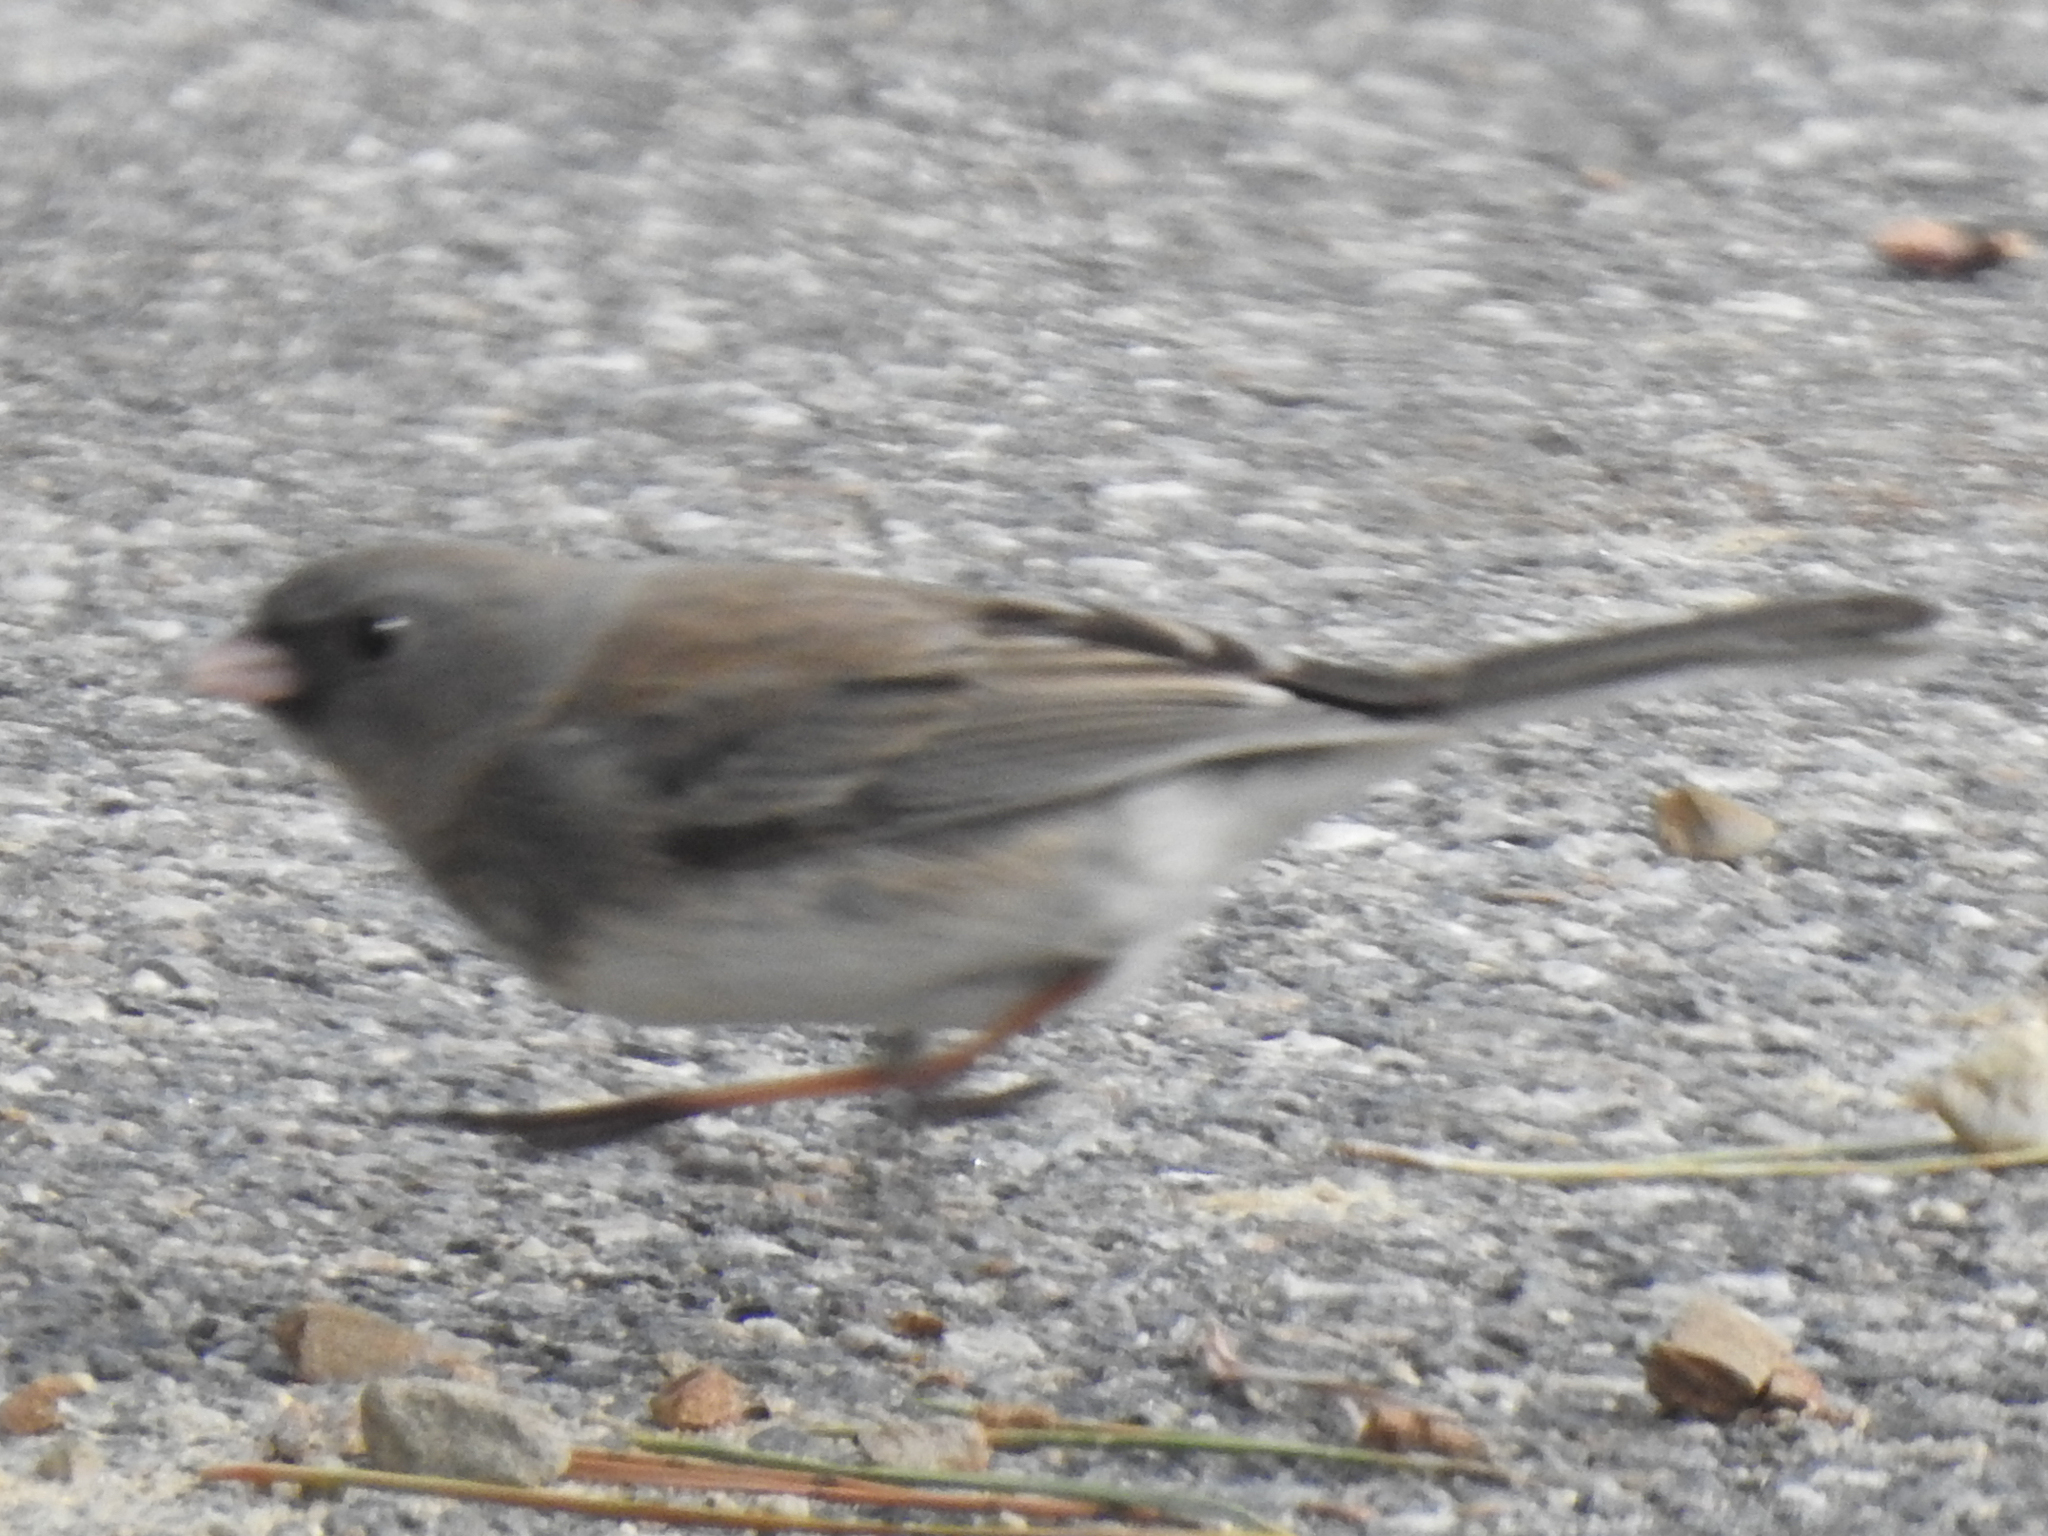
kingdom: Animalia
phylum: Chordata
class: Aves
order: Passeriformes
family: Passerellidae
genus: Junco
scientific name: Junco hyemalis
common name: Dark-eyed junco
